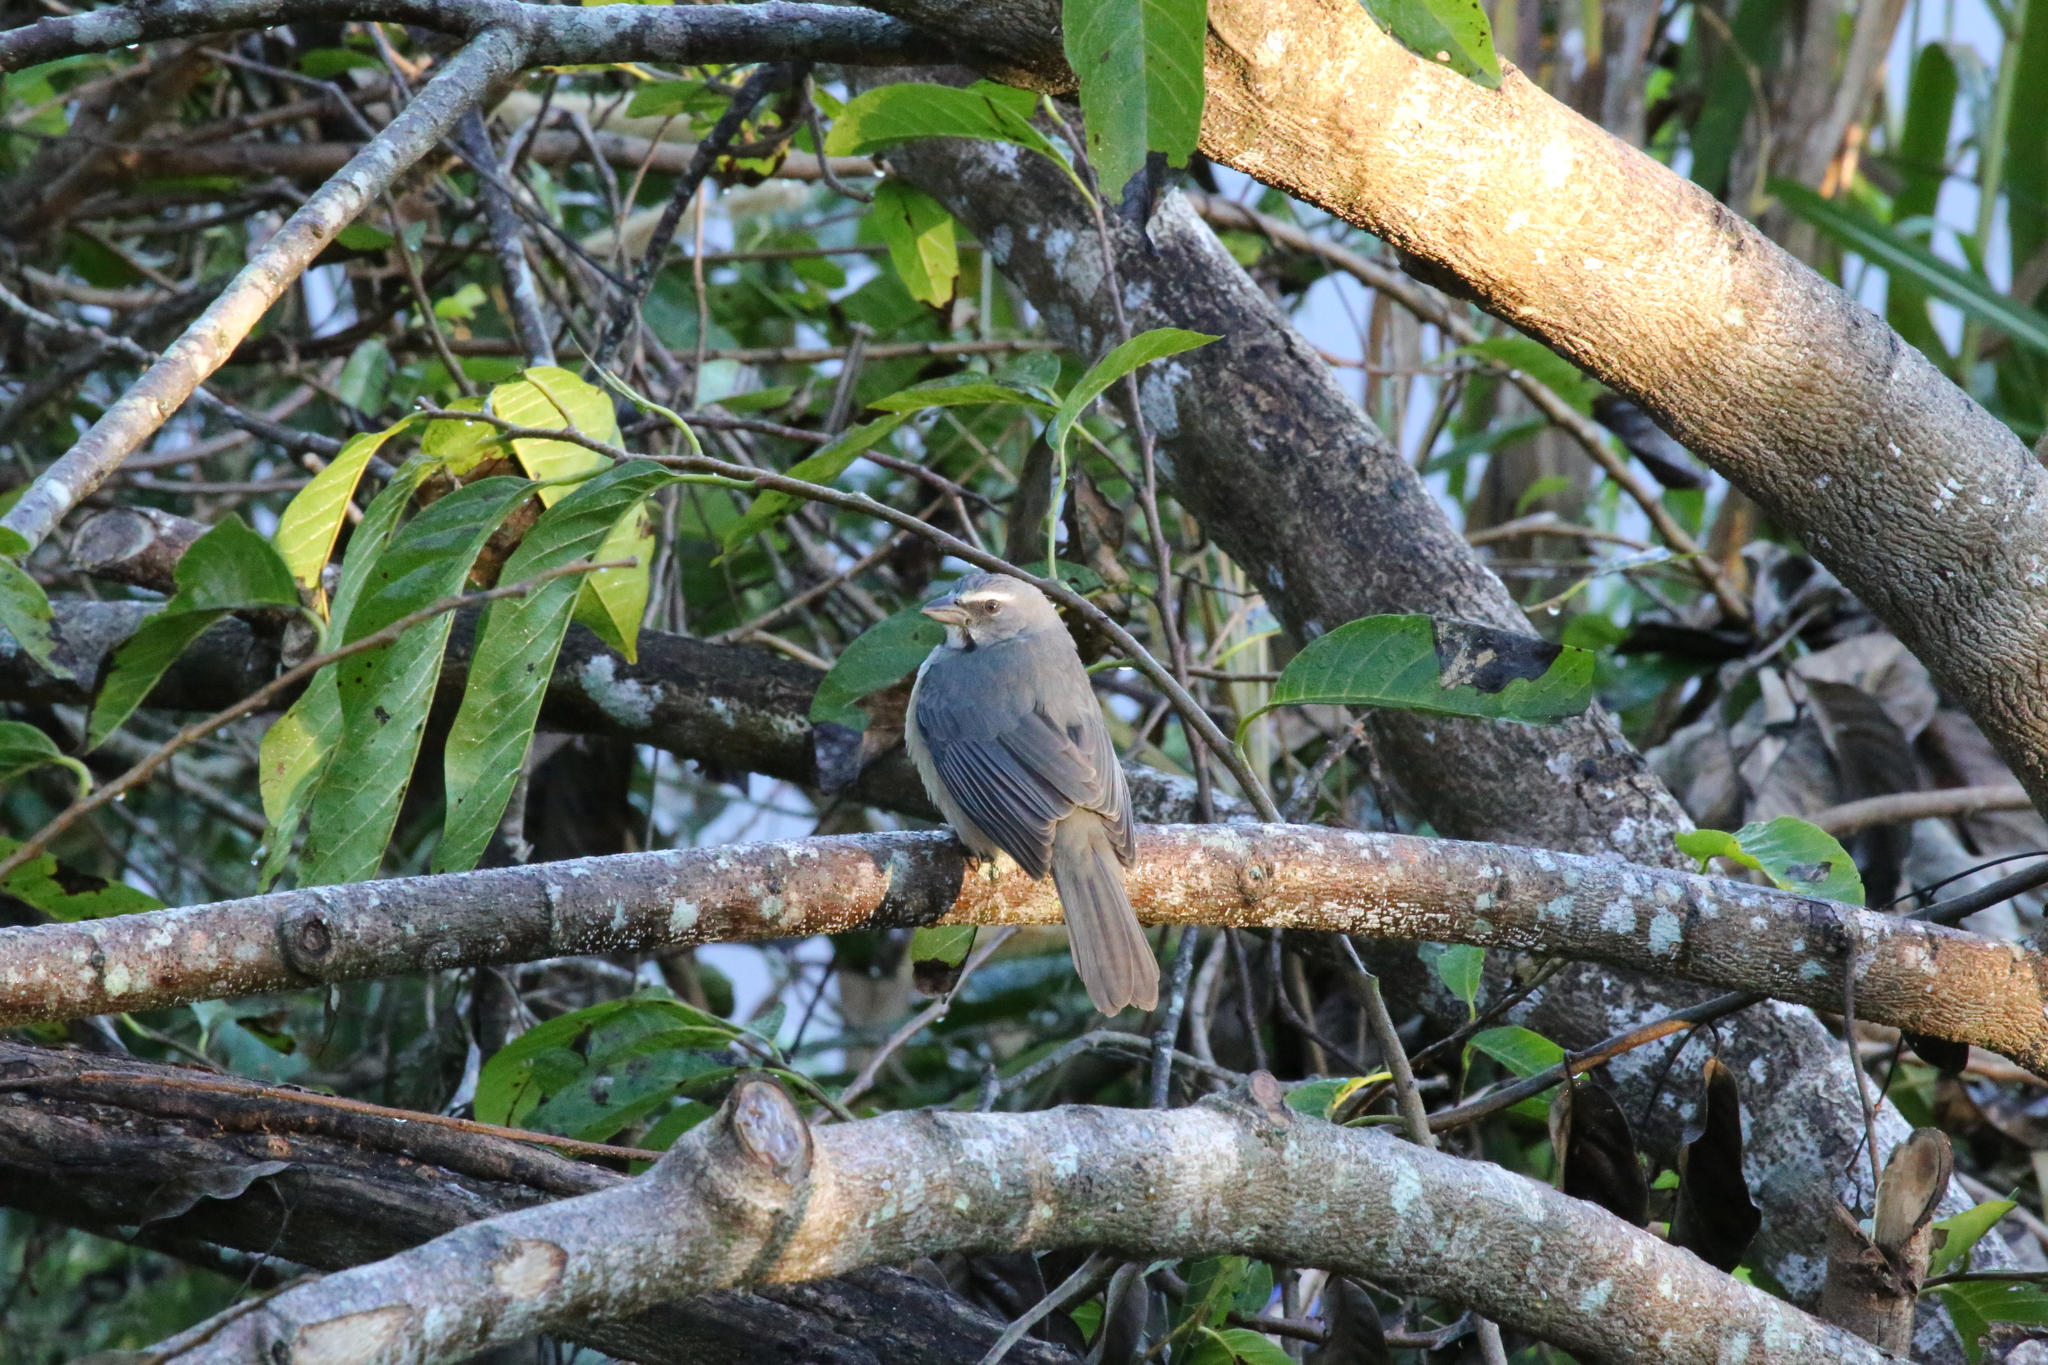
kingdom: Animalia
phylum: Chordata
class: Aves
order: Passeriformes
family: Thraupidae
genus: Saltator
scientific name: Saltator grandis
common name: Cinnamon-bellied saltator
